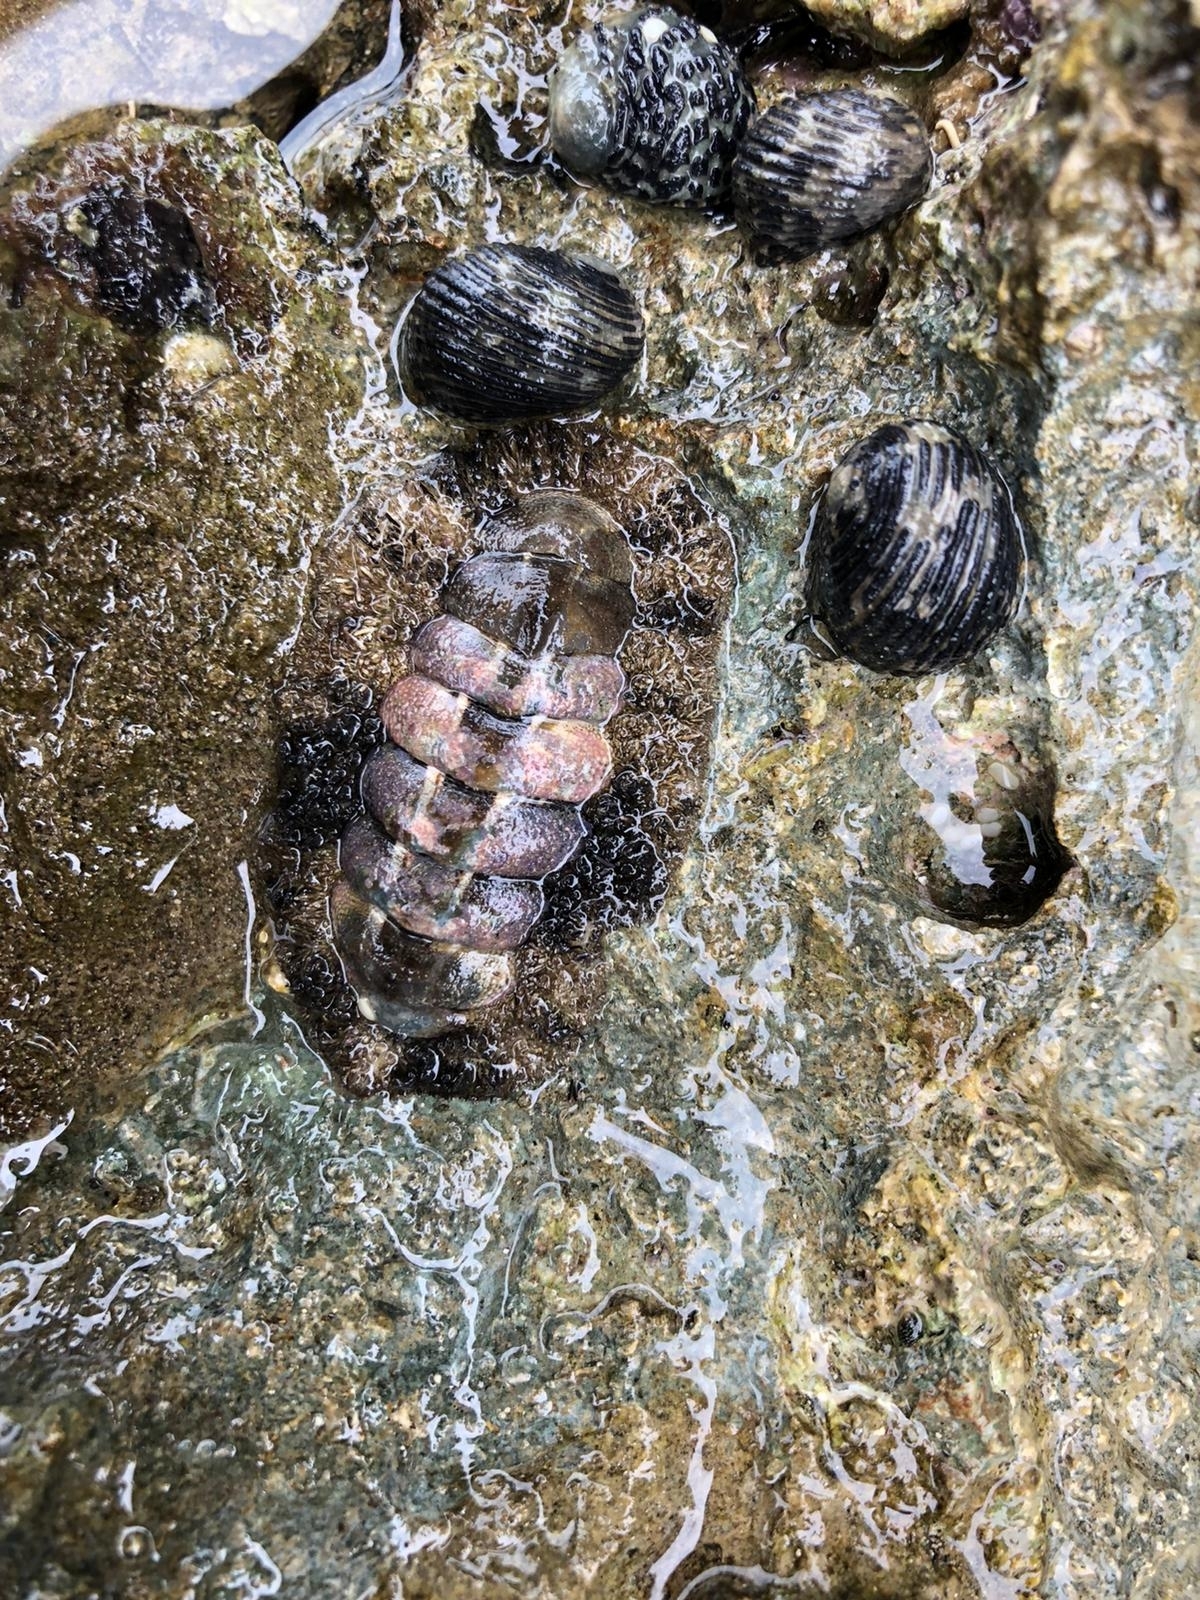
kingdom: Animalia
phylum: Mollusca
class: Polyplacophora
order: Chitonida
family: Chitonidae
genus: Acanthopleura
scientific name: Acanthopleura granulata
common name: West indian fuzzy chiton
